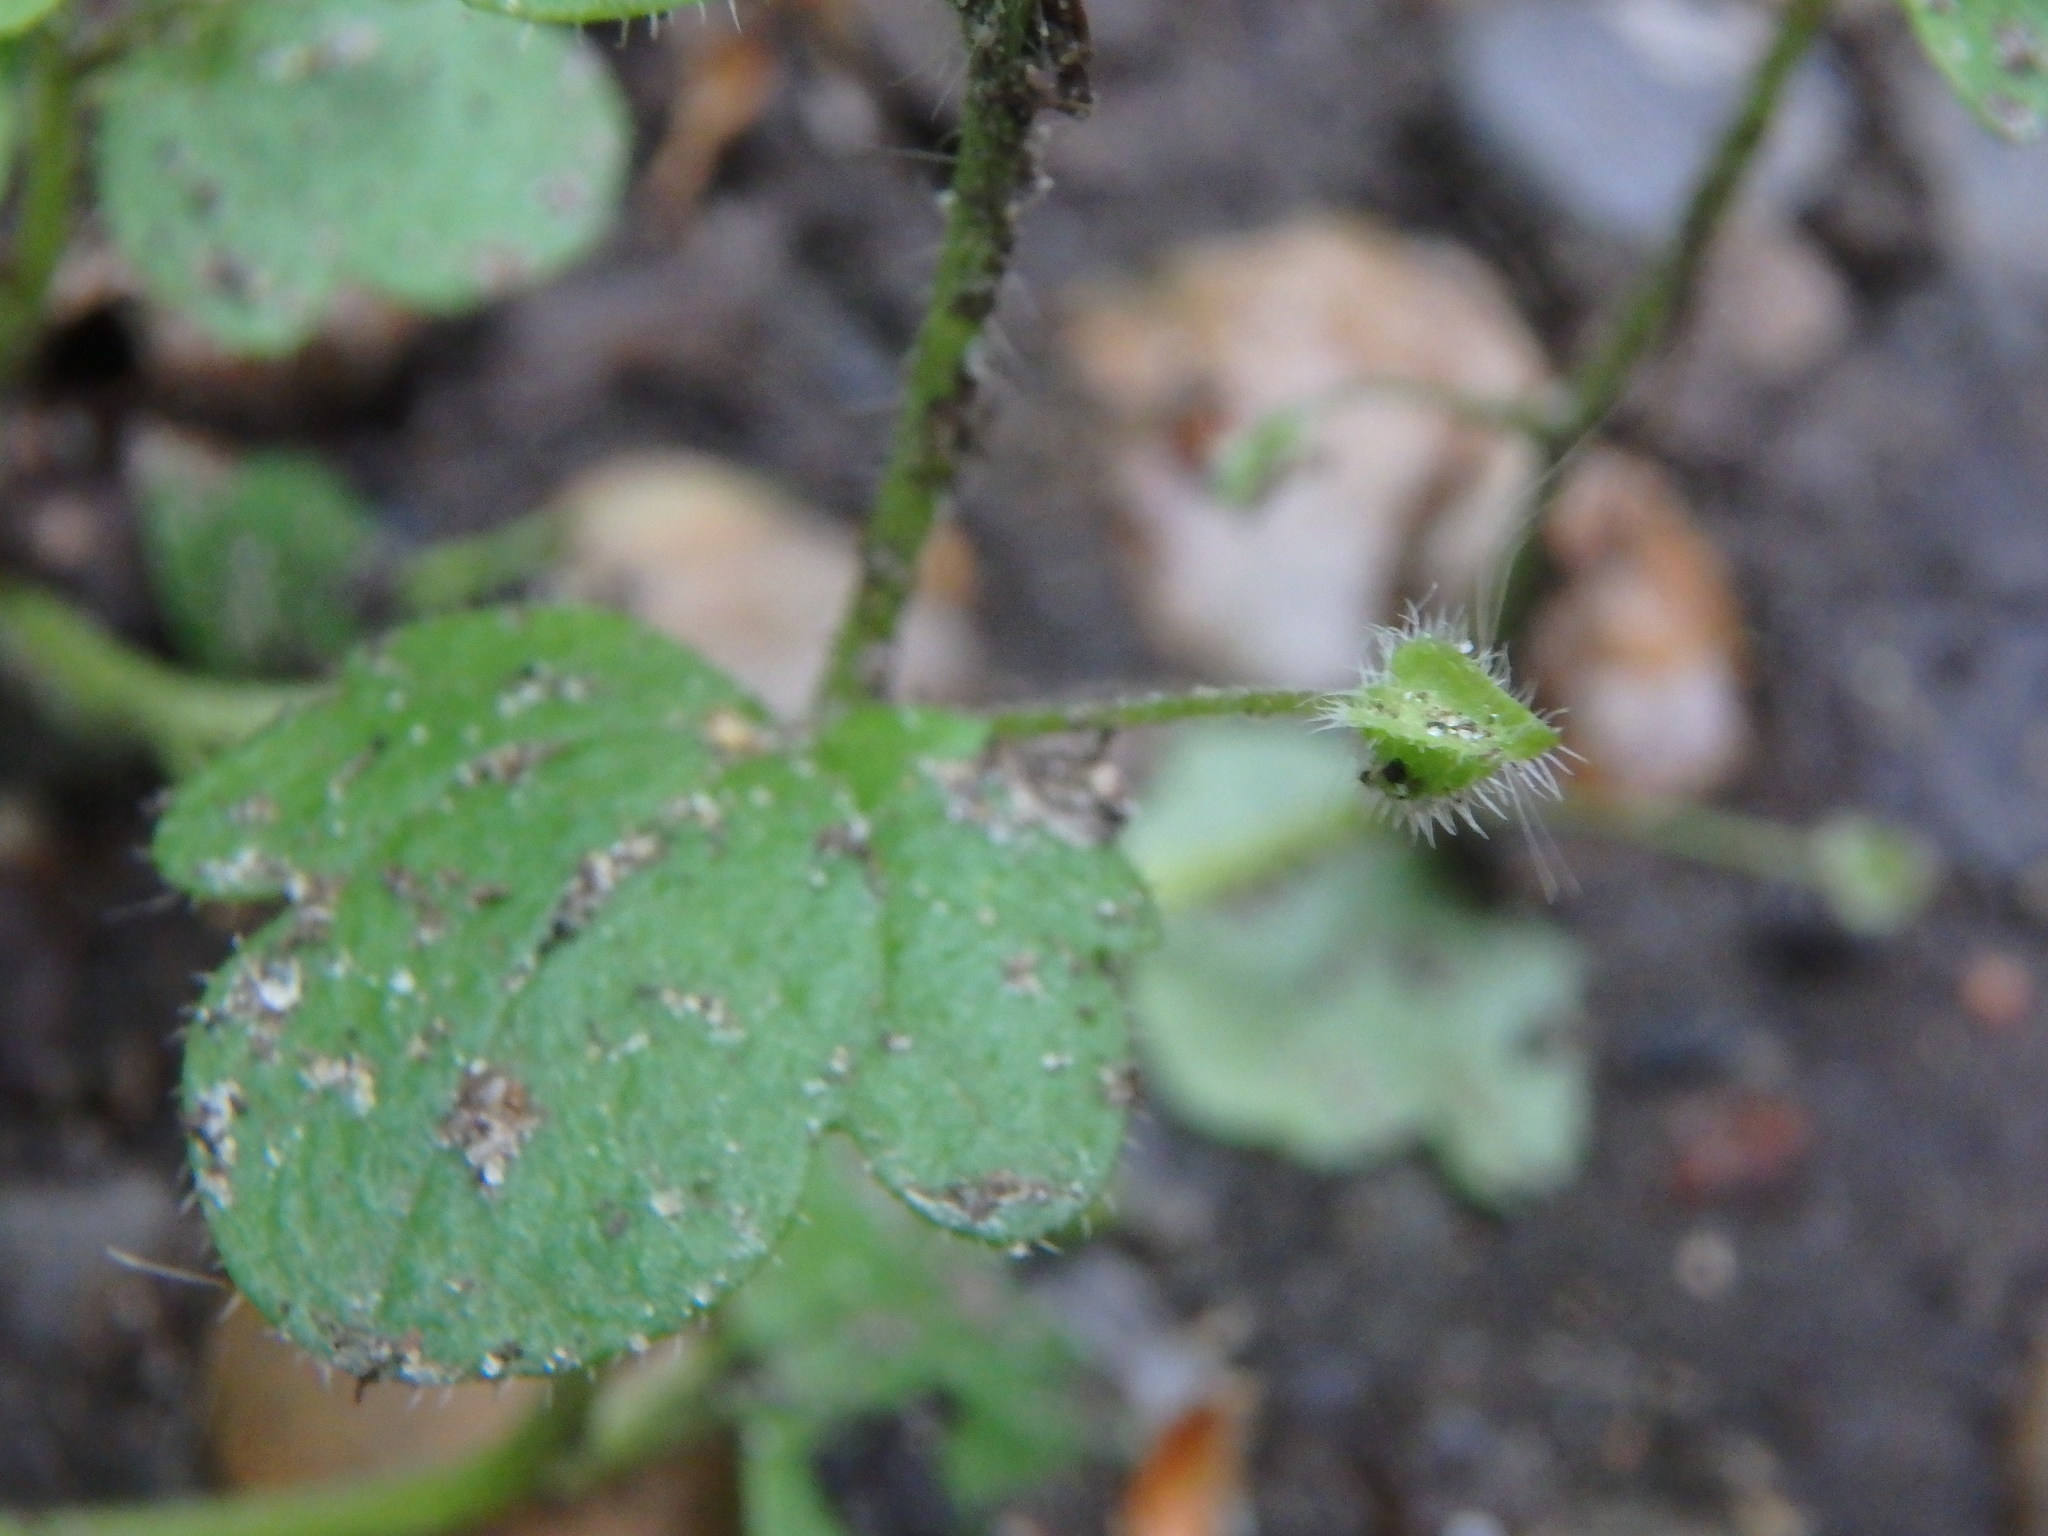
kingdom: Plantae
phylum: Tracheophyta
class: Magnoliopsida
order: Lamiales
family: Plantaginaceae
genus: Veronica
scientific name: Veronica hederifolia
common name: Ivy-leaved speedwell
